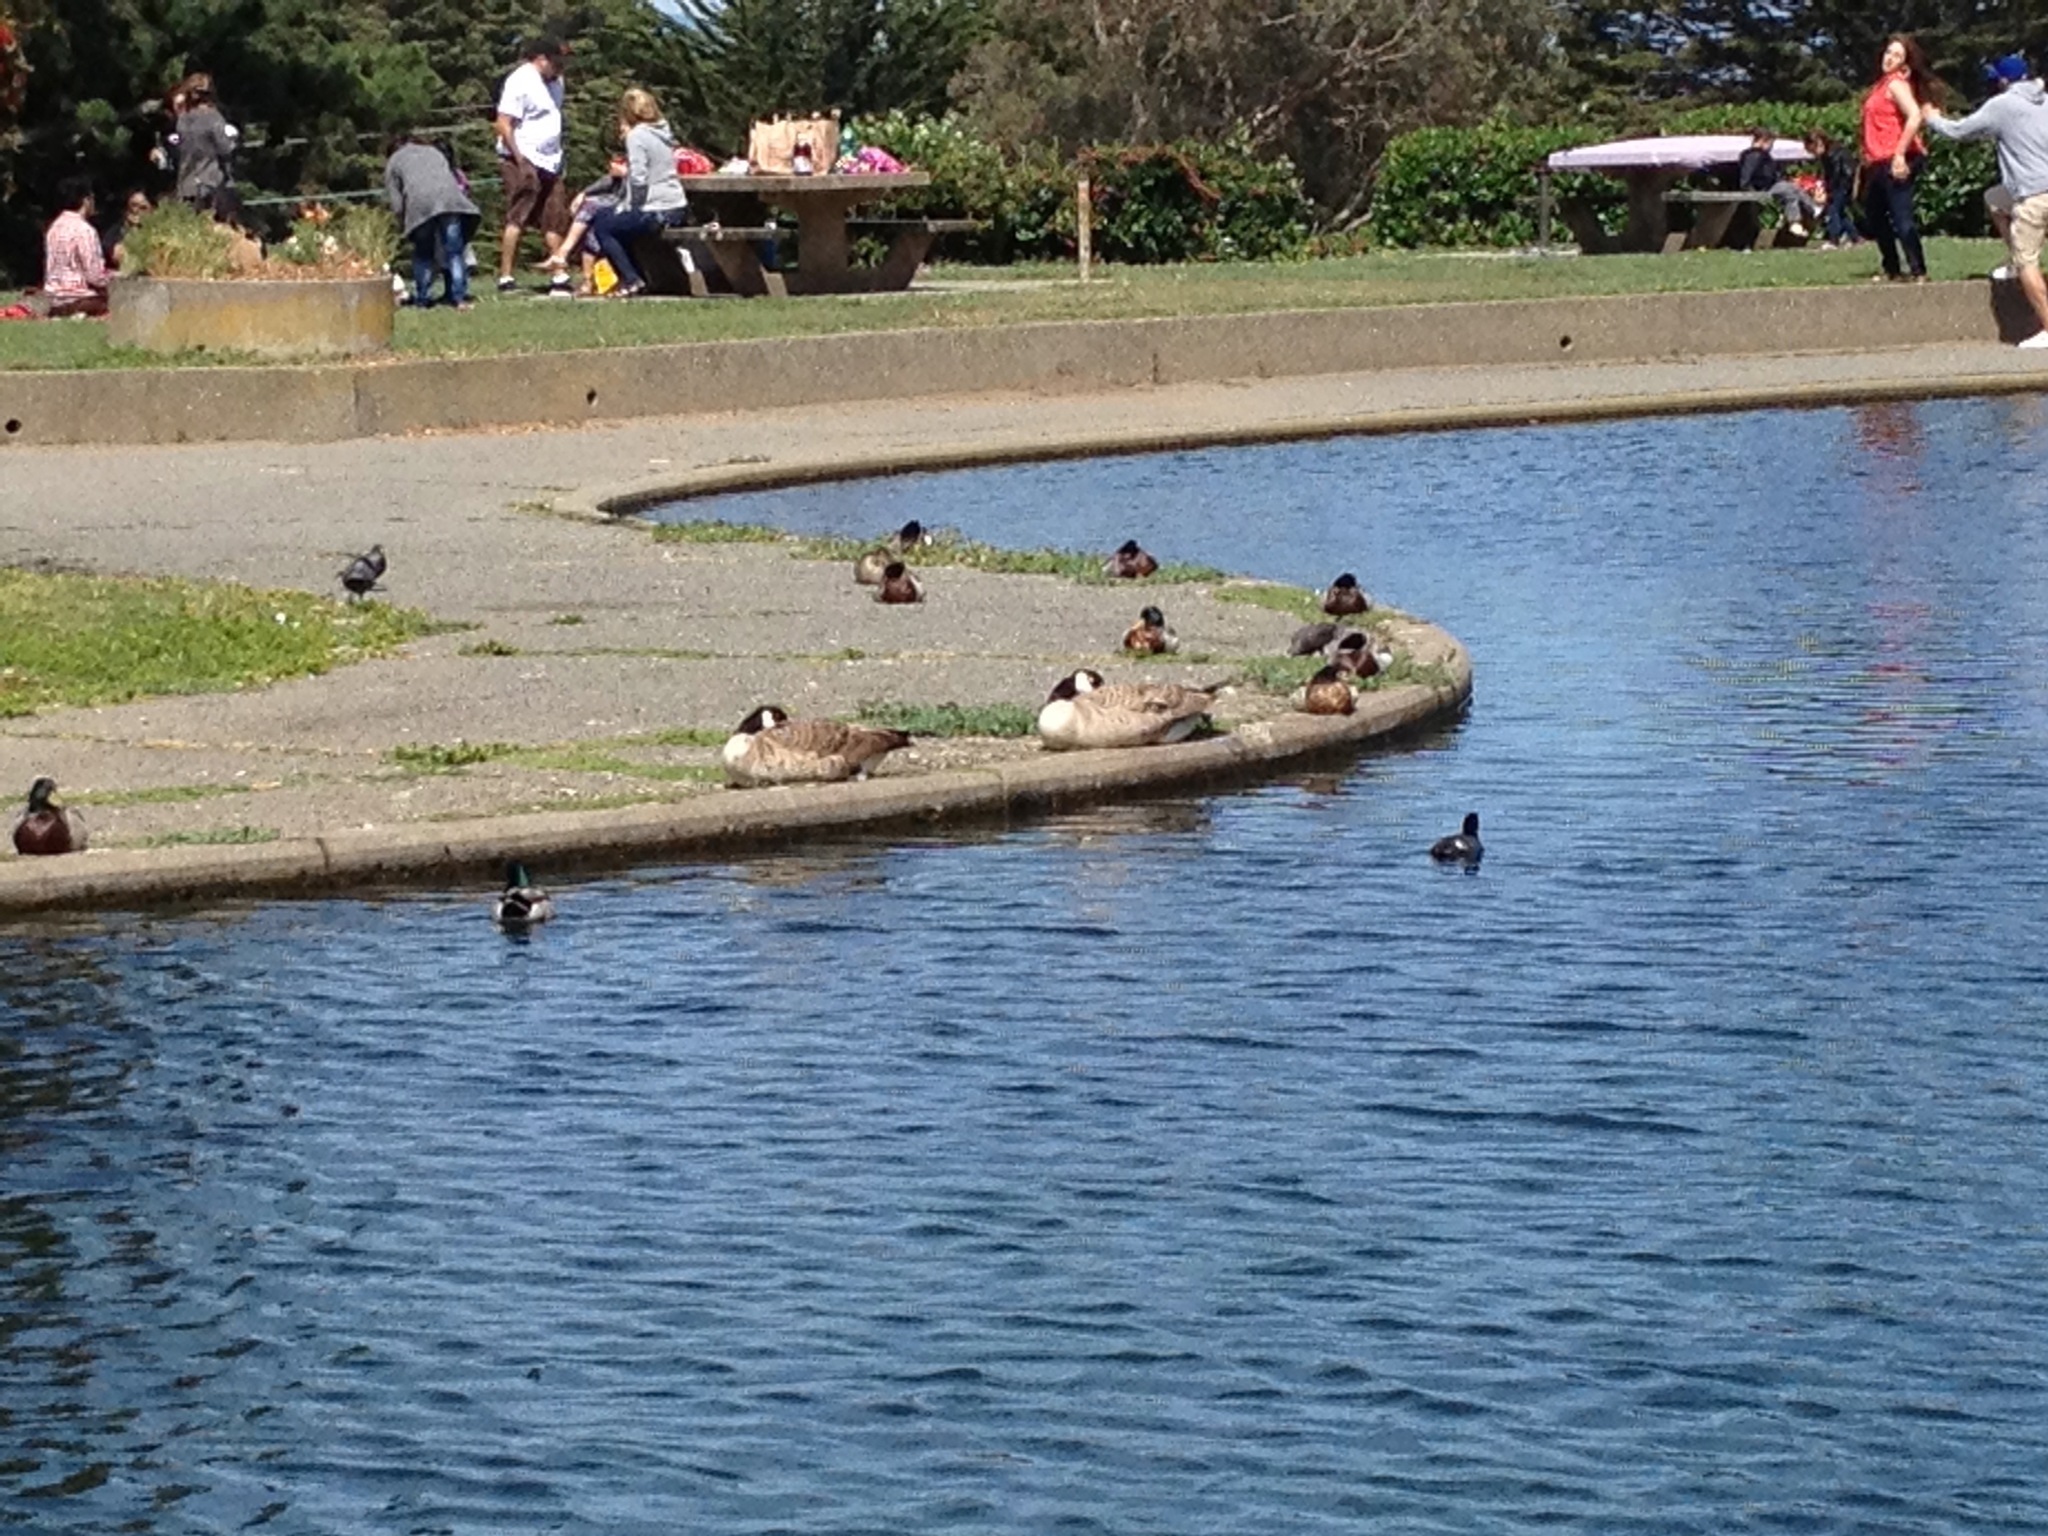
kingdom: Animalia
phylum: Chordata
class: Aves
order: Anseriformes
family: Anatidae
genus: Branta
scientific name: Branta canadensis
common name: Canada goose
